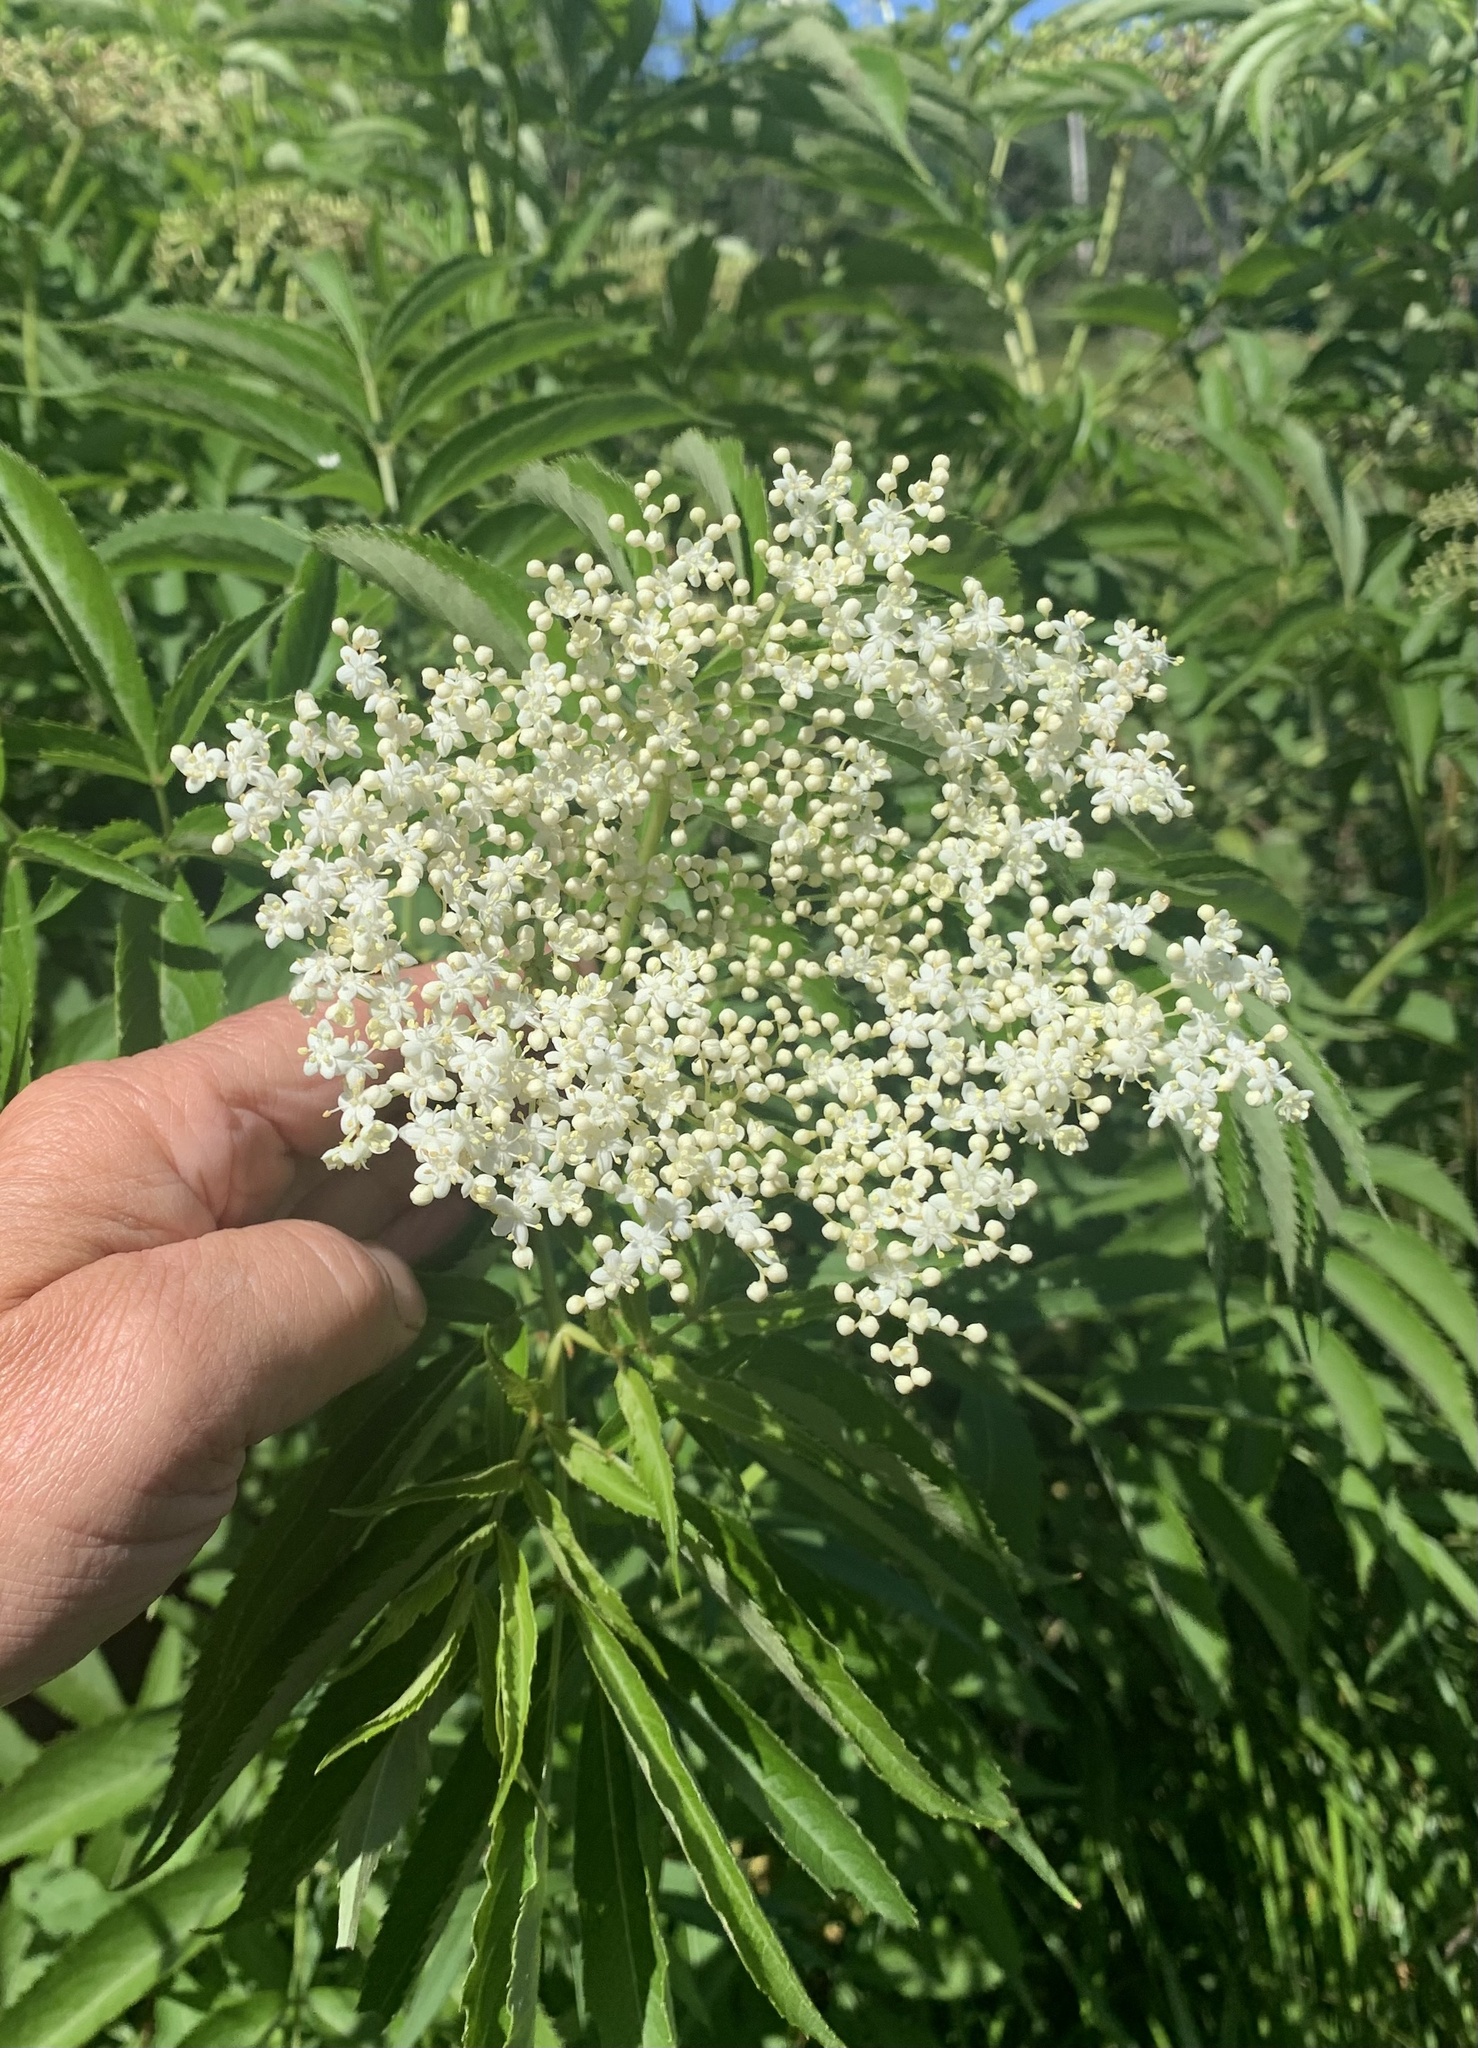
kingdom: Plantae
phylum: Tracheophyta
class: Magnoliopsida
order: Dipsacales
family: Viburnaceae
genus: Sambucus
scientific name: Sambucus canadensis
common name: American elder
